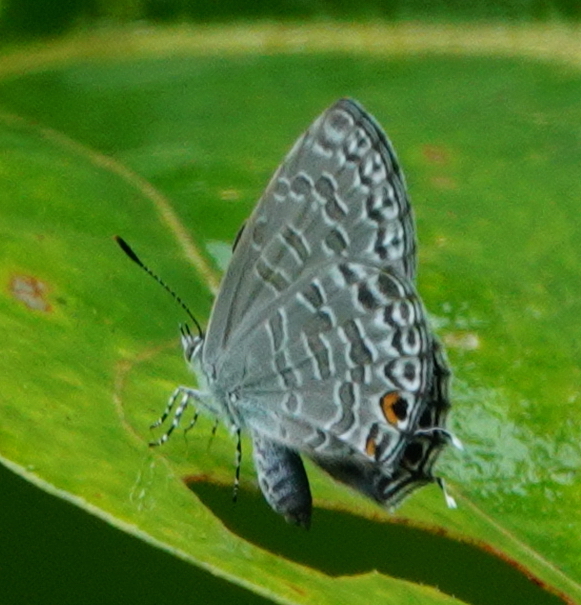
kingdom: Animalia
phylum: Arthropoda
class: Insecta
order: Lepidoptera
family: Lycaenidae
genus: Catopyrops
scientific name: Catopyrops ancyra
